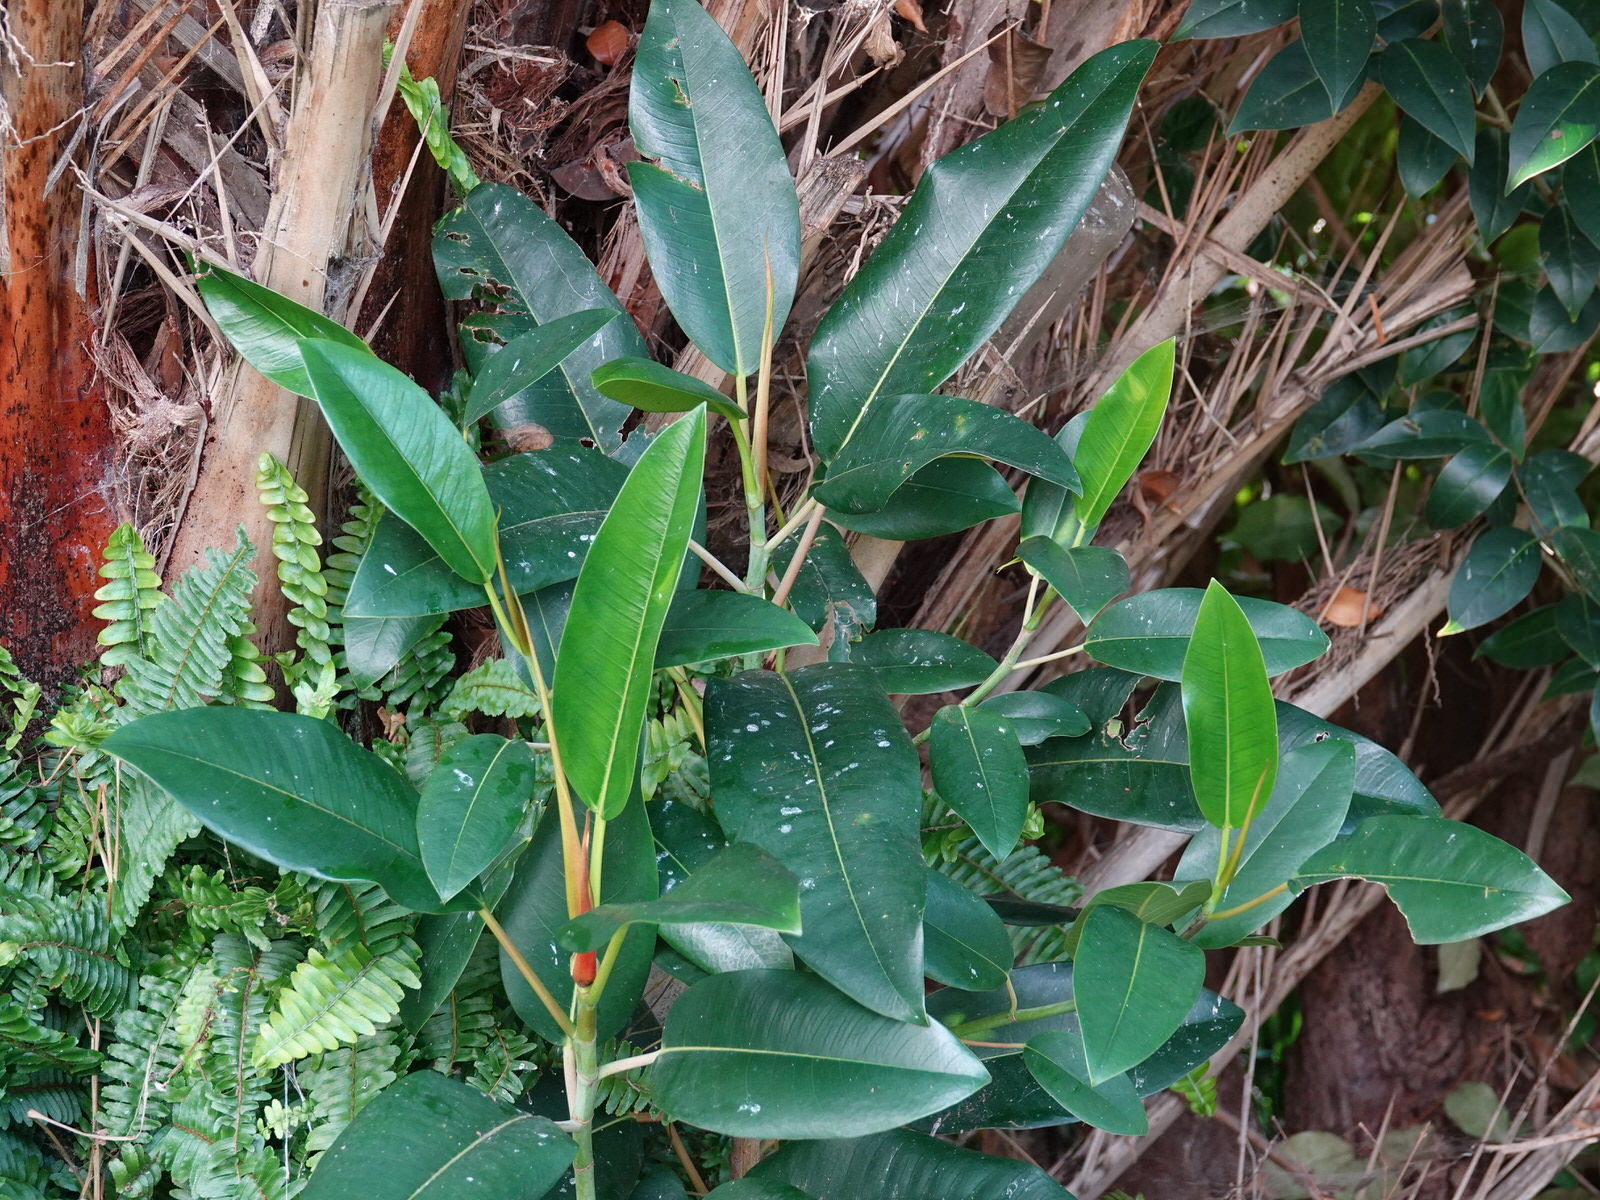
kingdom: Plantae
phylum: Tracheophyta
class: Magnoliopsida
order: Rosales
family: Moraceae
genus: Ficus
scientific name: Ficus macrophylla
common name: Moreton bay fig
